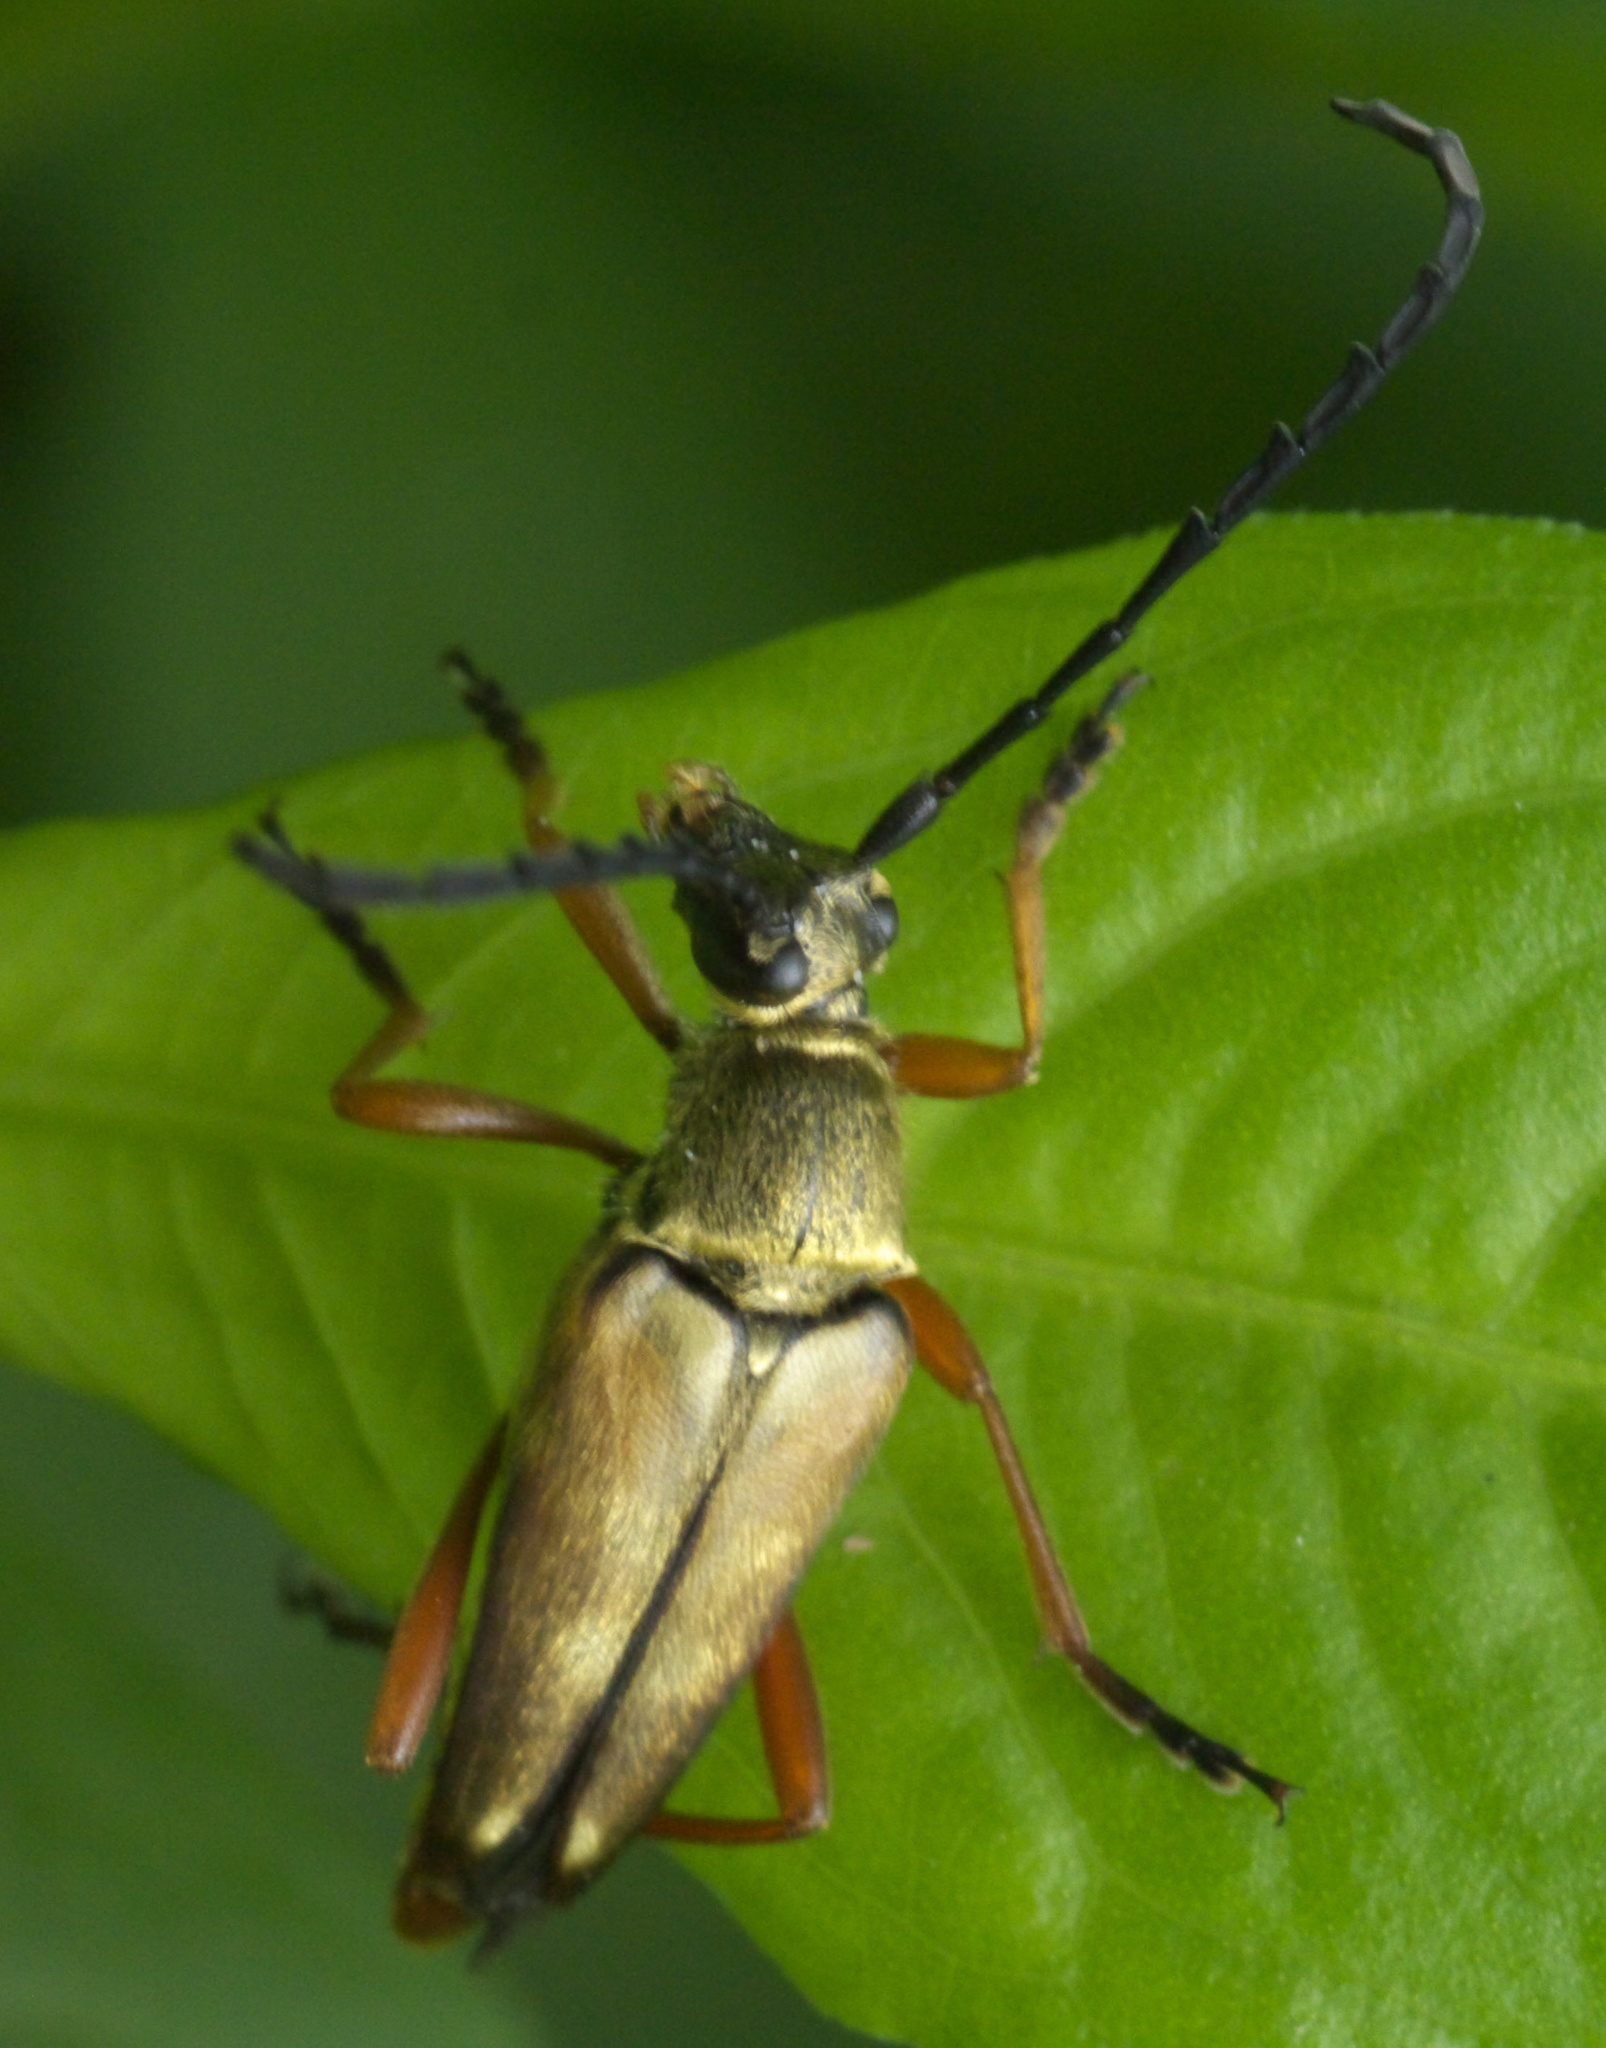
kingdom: Animalia
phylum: Arthropoda
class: Insecta
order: Coleoptera
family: Cerambycidae
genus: Typocerus
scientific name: Typocerus acuticauda
